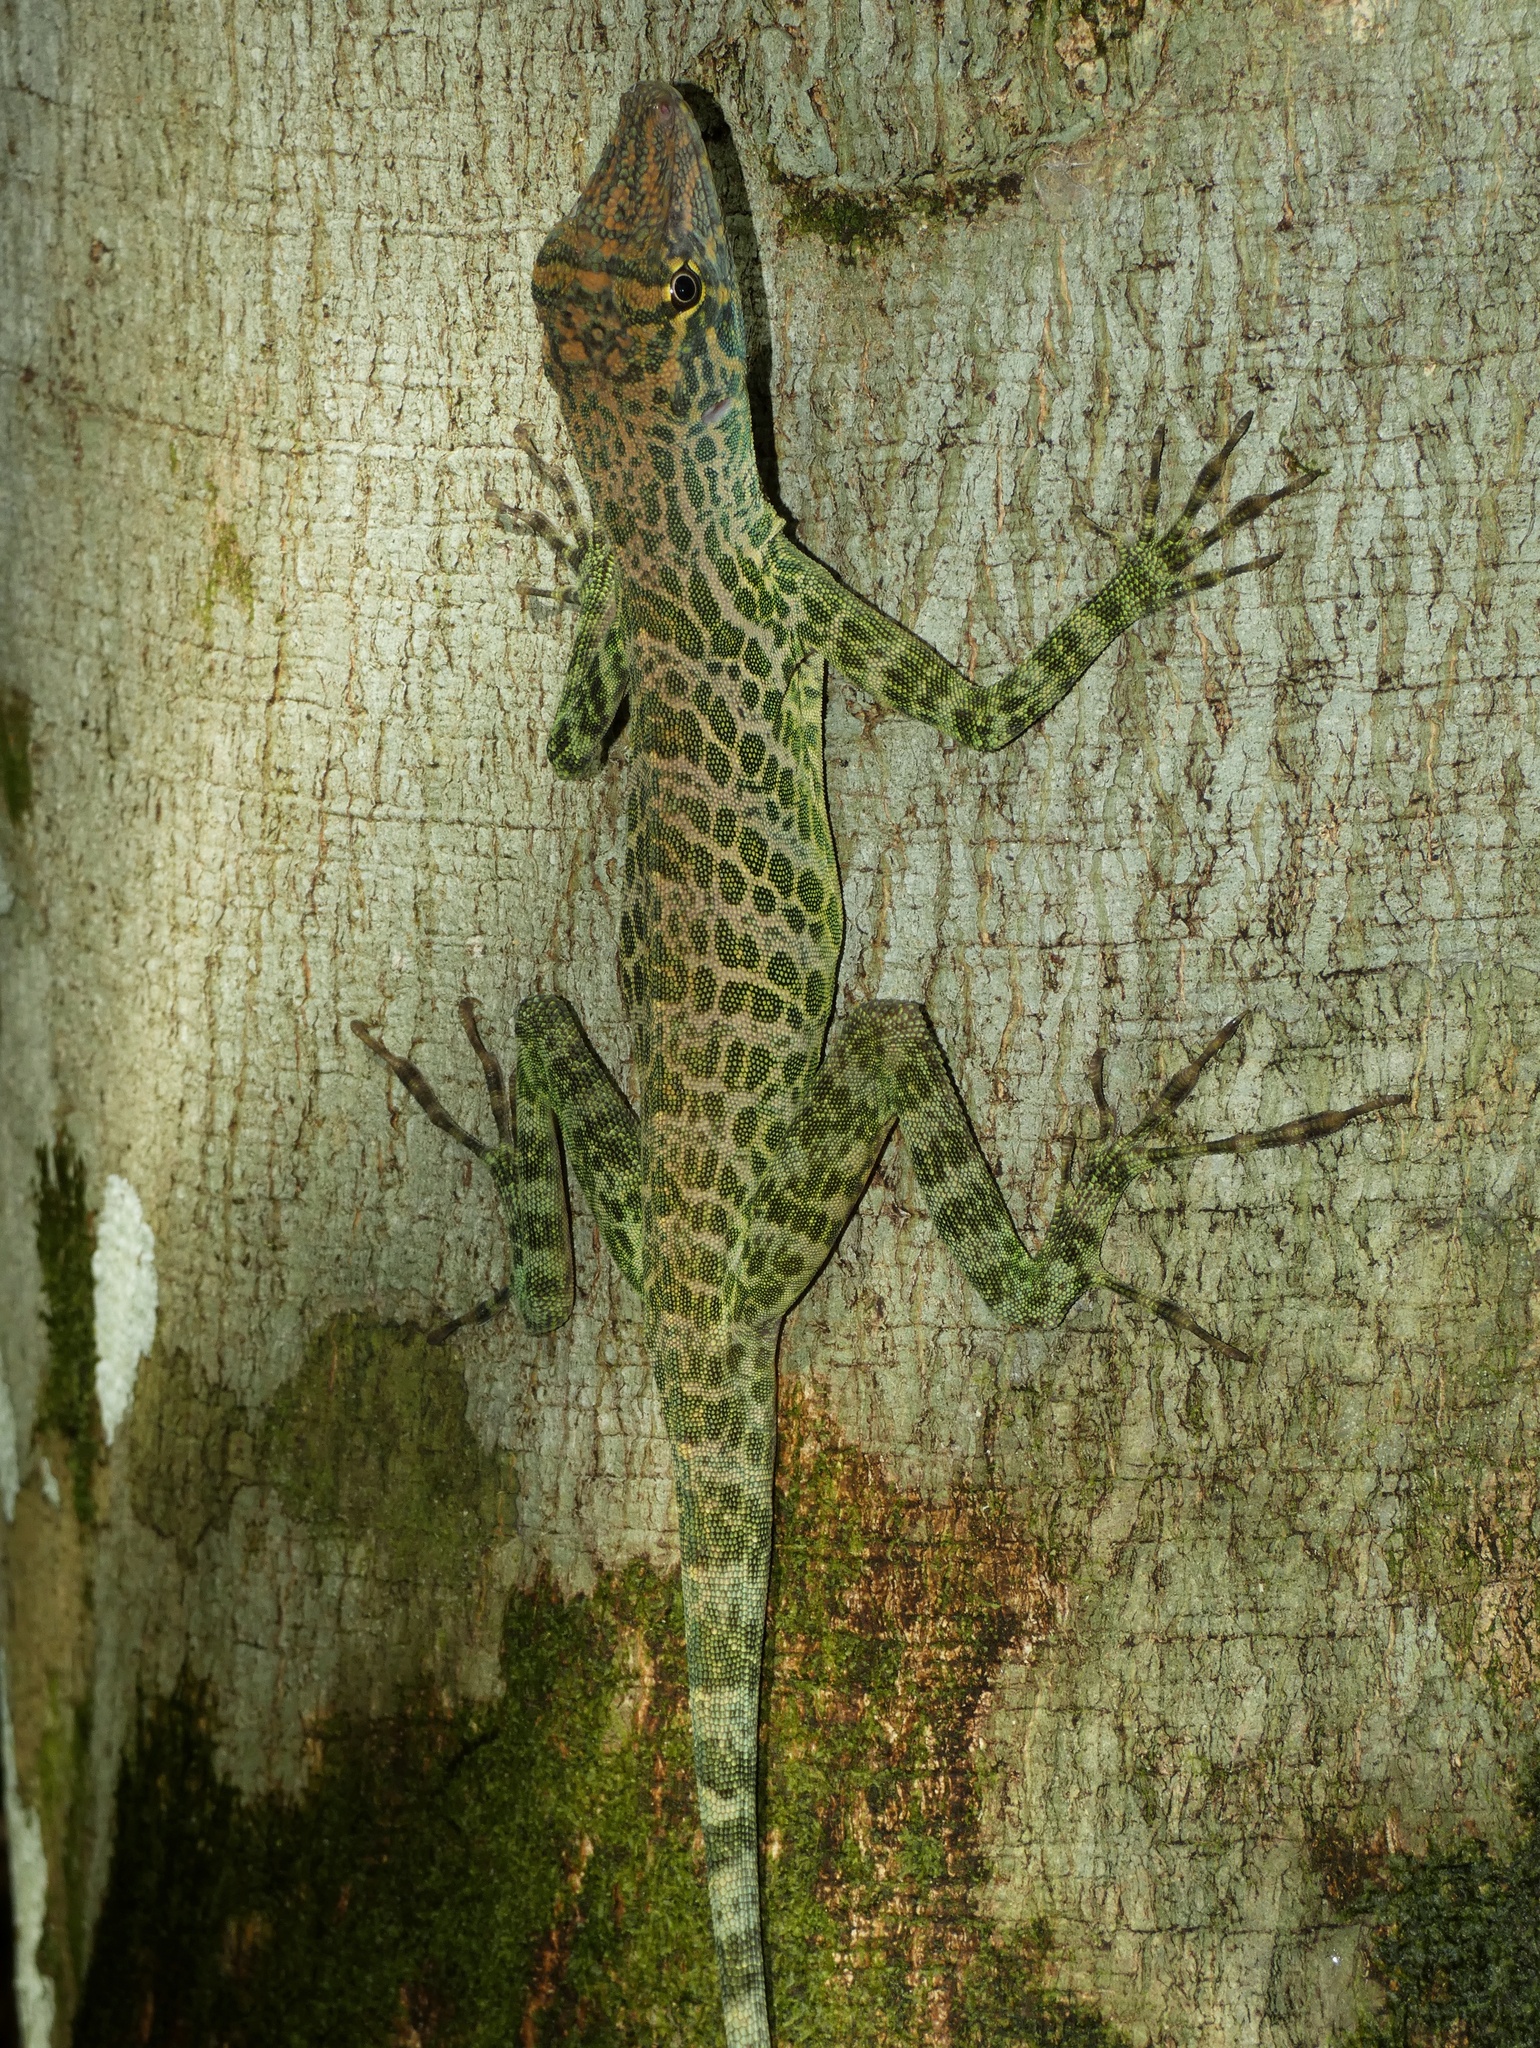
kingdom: Animalia
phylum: Chordata
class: Squamata
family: Dactyloidae
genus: Anolis
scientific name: Anolis frenatus
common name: Bridled anole
